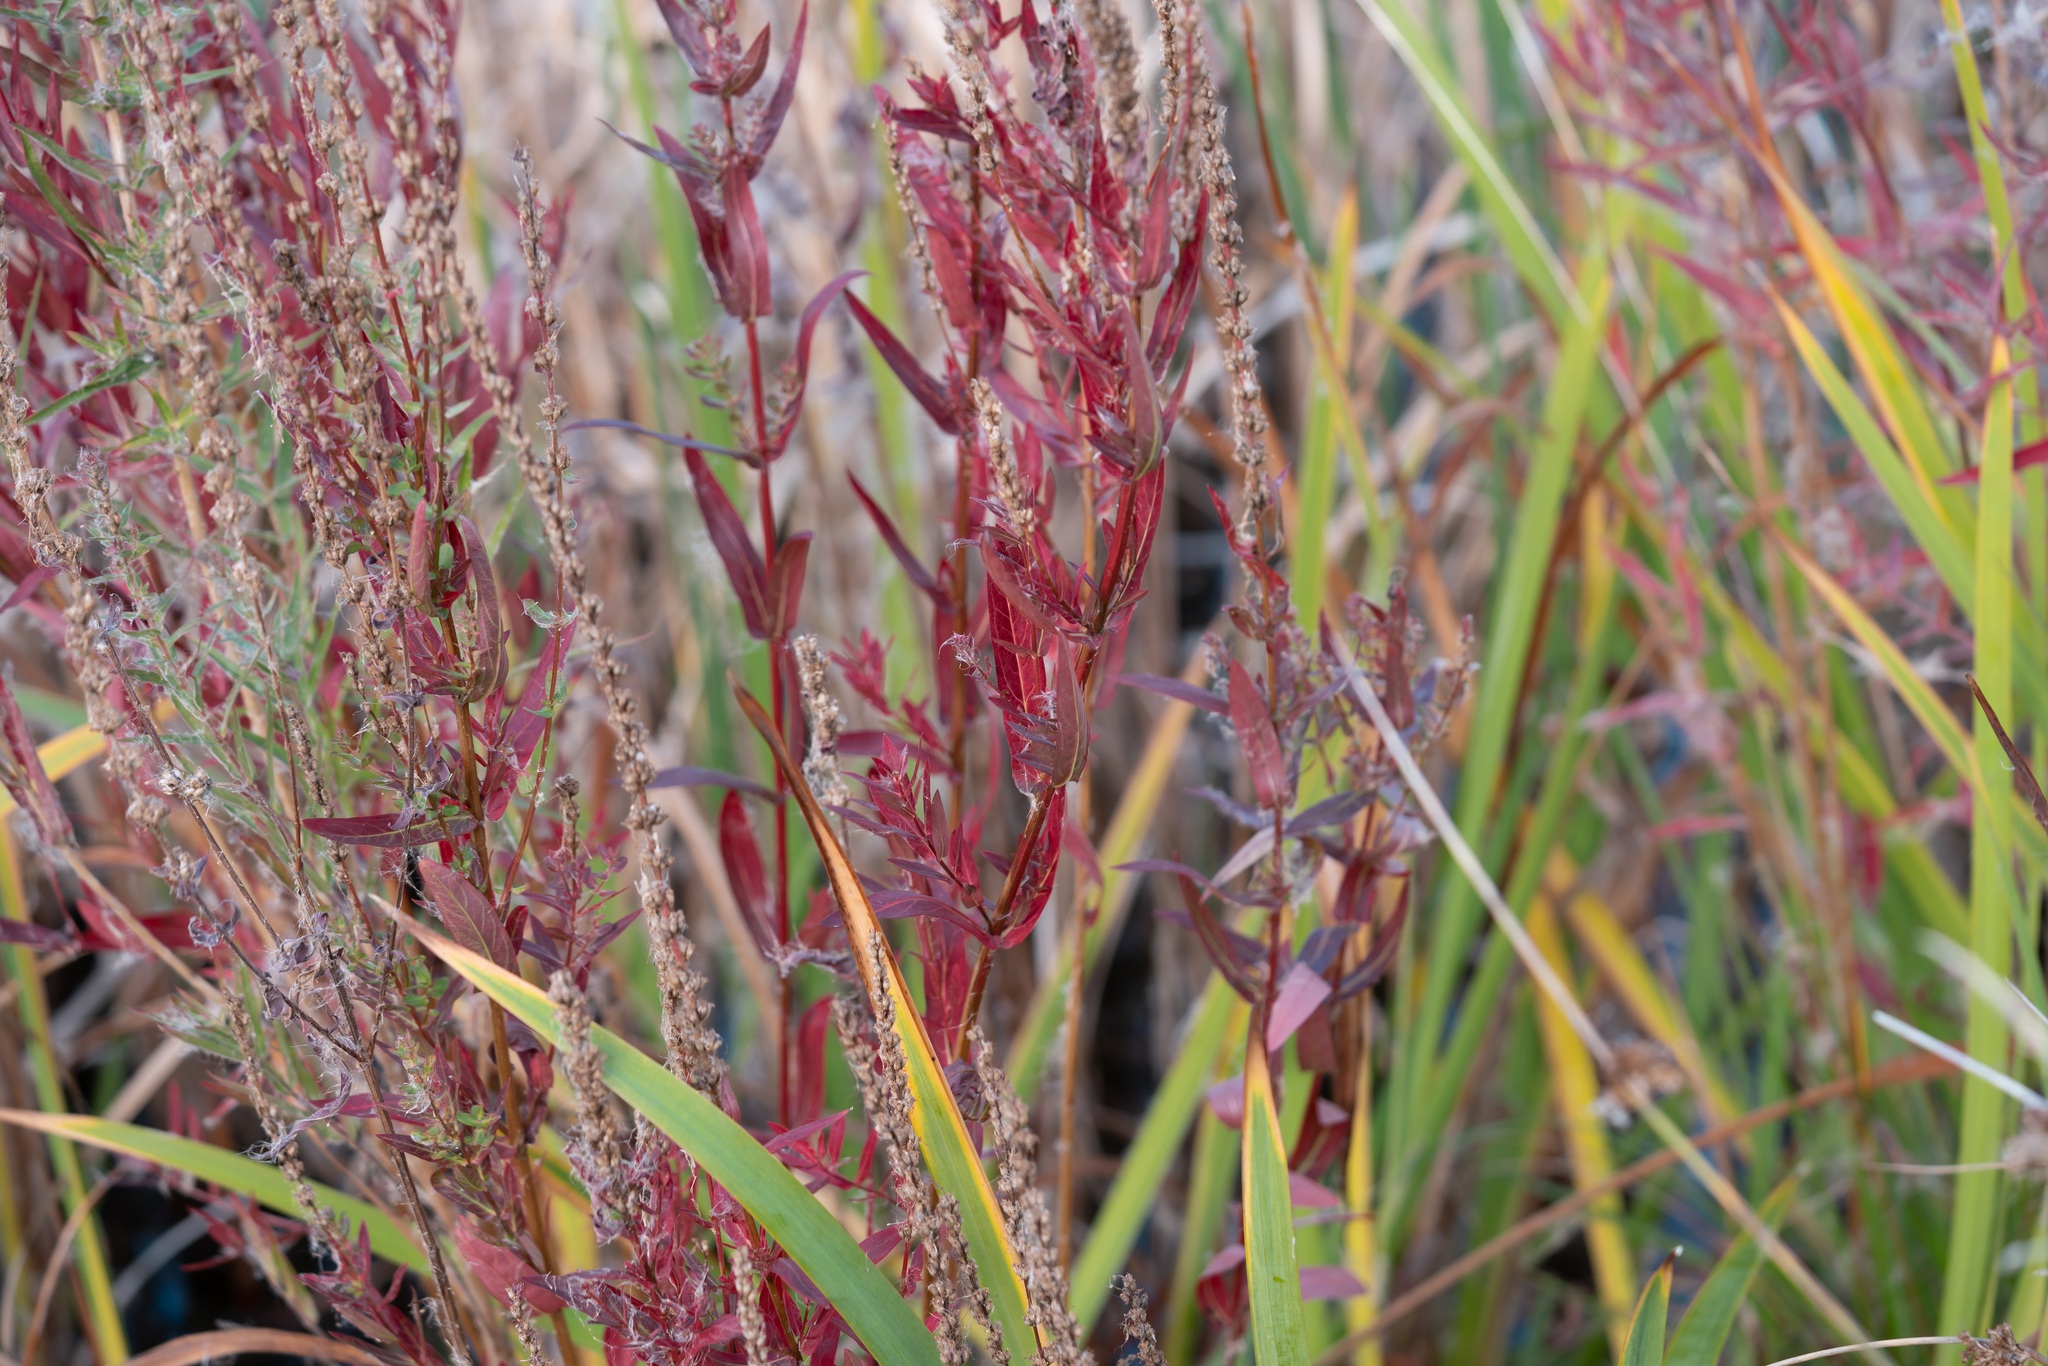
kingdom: Plantae
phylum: Tracheophyta
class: Magnoliopsida
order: Myrtales
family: Lythraceae
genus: Lythrum
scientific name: Lythrum salicaria
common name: Purple loosestrife
